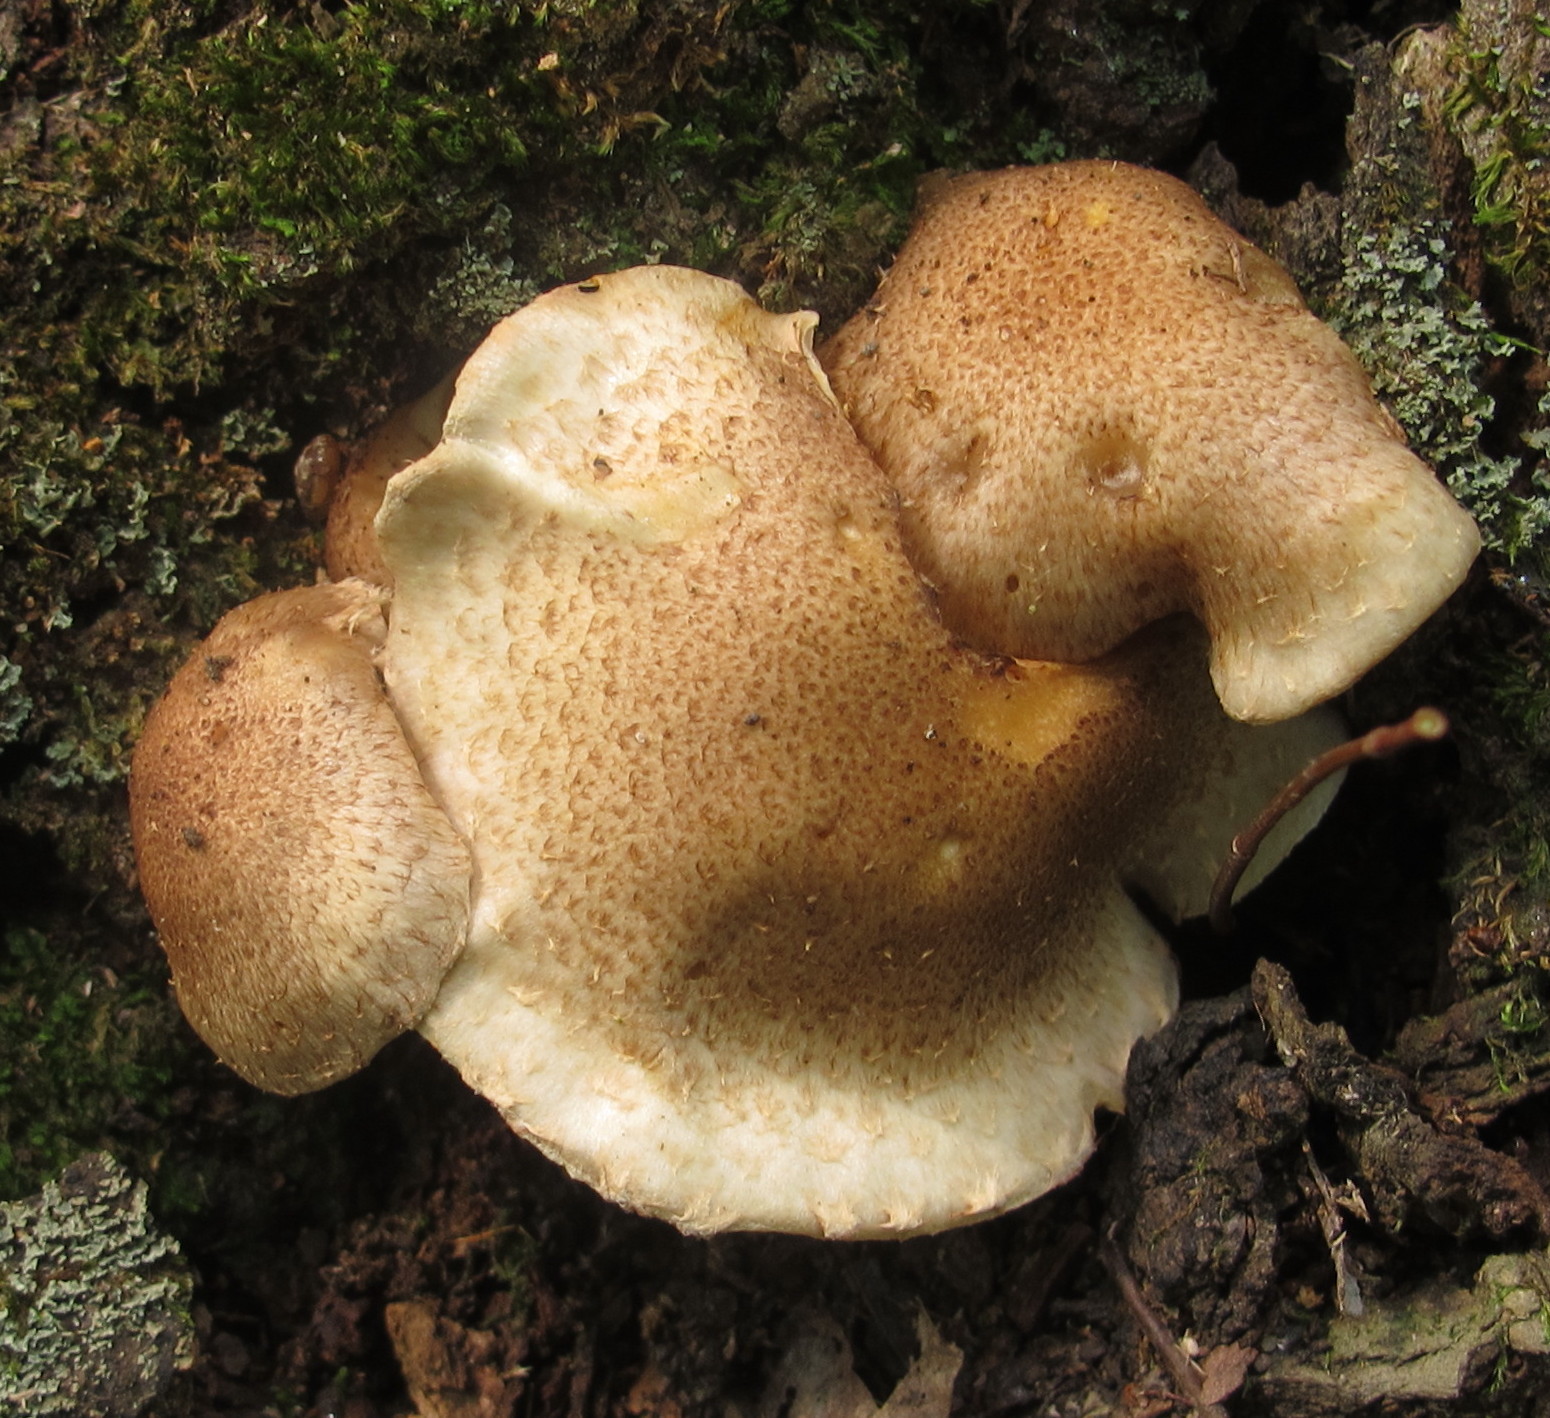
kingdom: Fungi
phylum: Basidiomycota
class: Agaricomycetes
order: Agaricales
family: Strophariaceae
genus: Pholiota
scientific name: Pholiota angustipes
